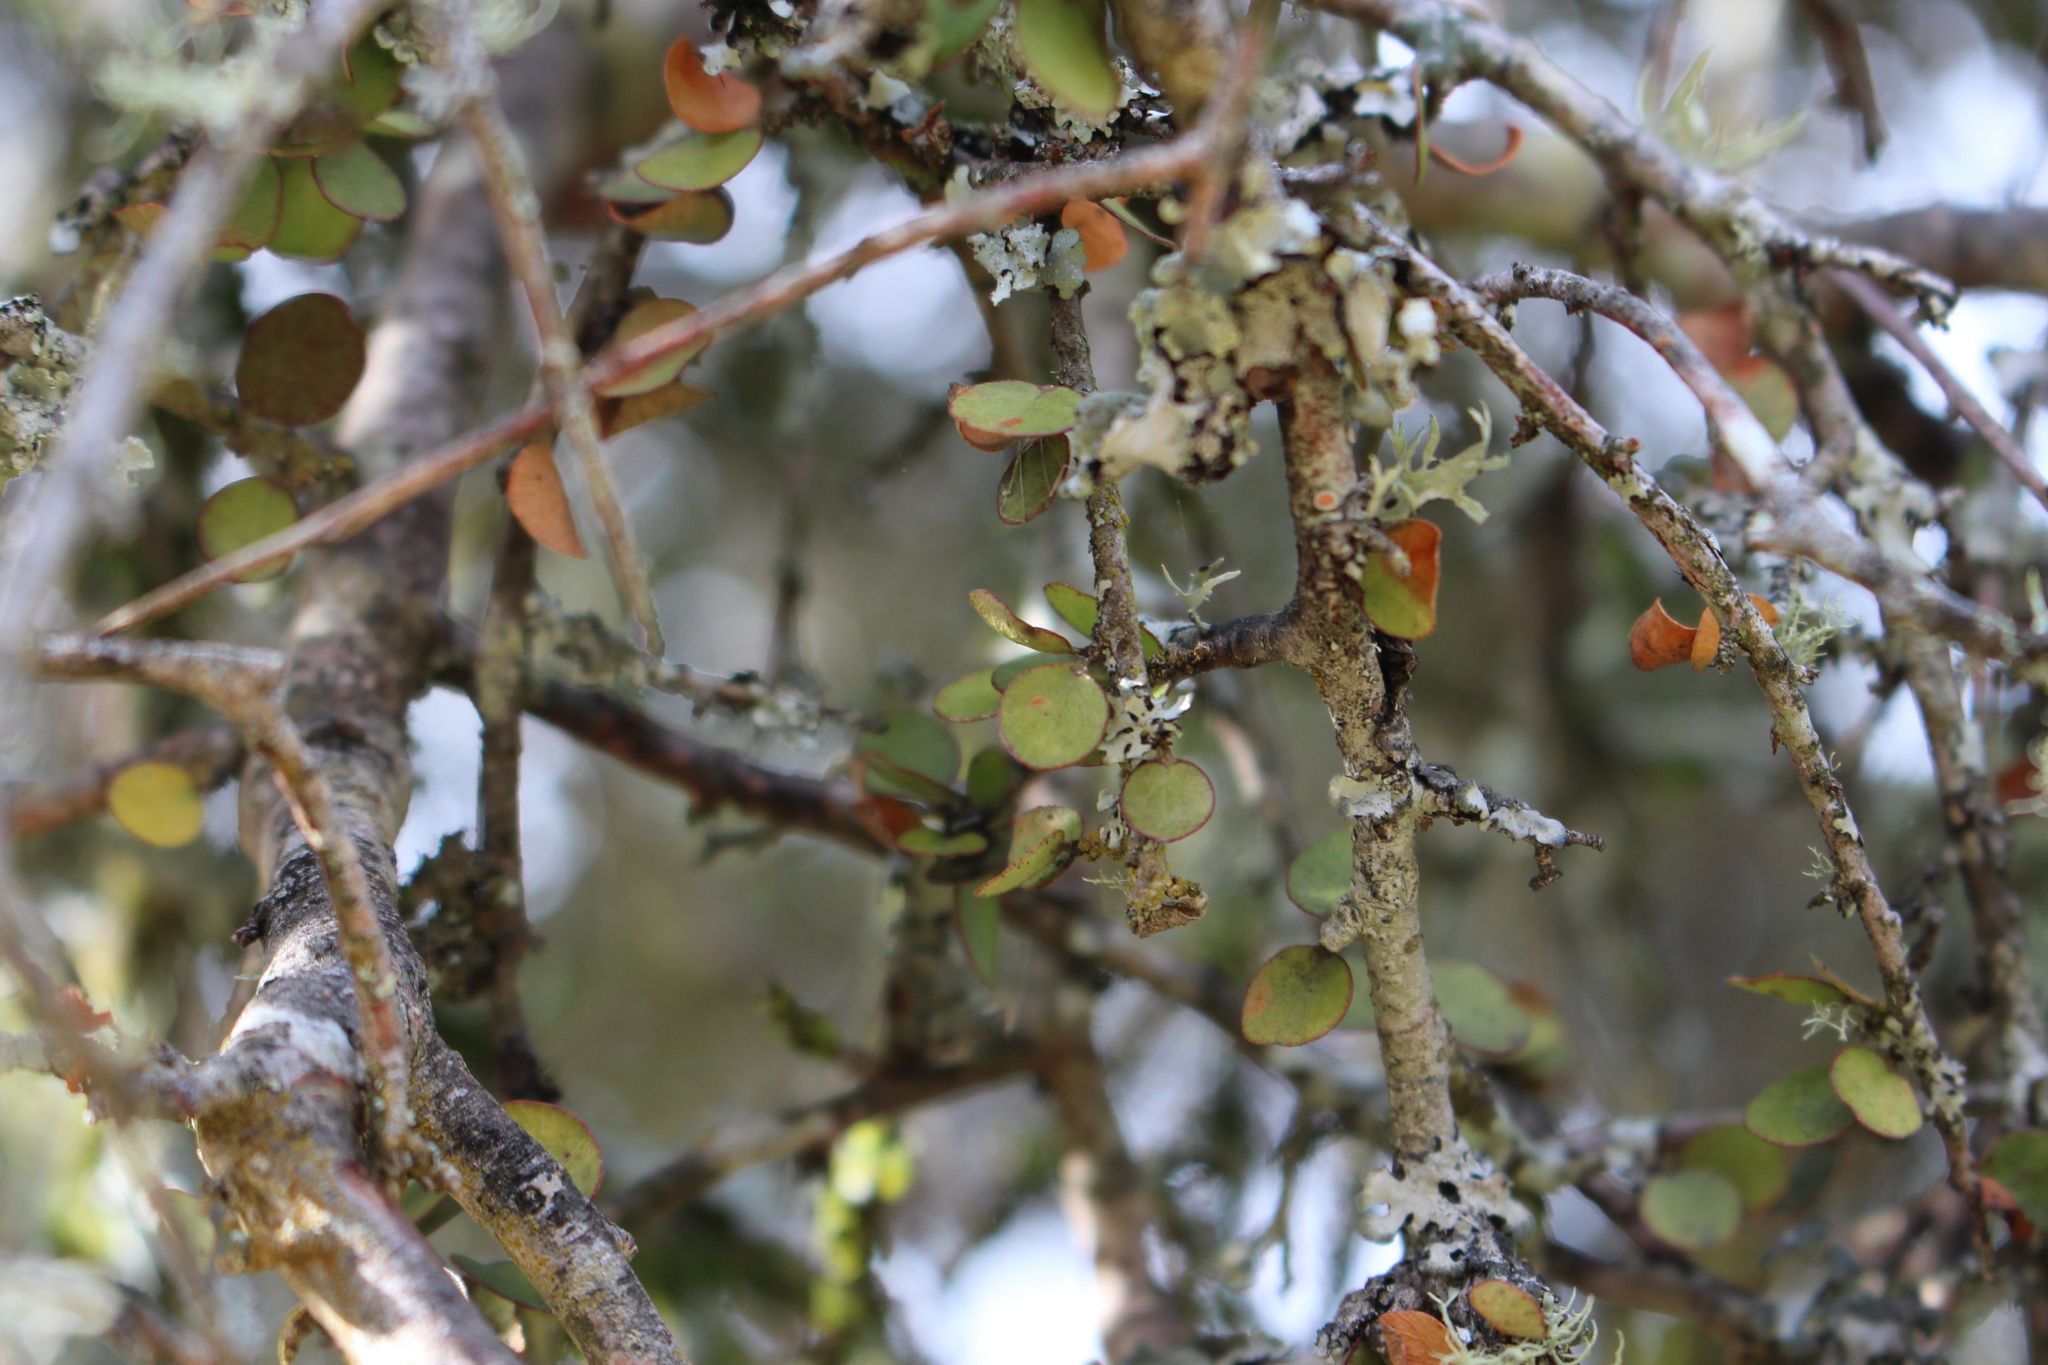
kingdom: Plantae
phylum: Tracheophyta
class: Magnoliopsida
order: Ericales
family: Primulaceae
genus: Myrsine
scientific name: Myrsine divaricata
